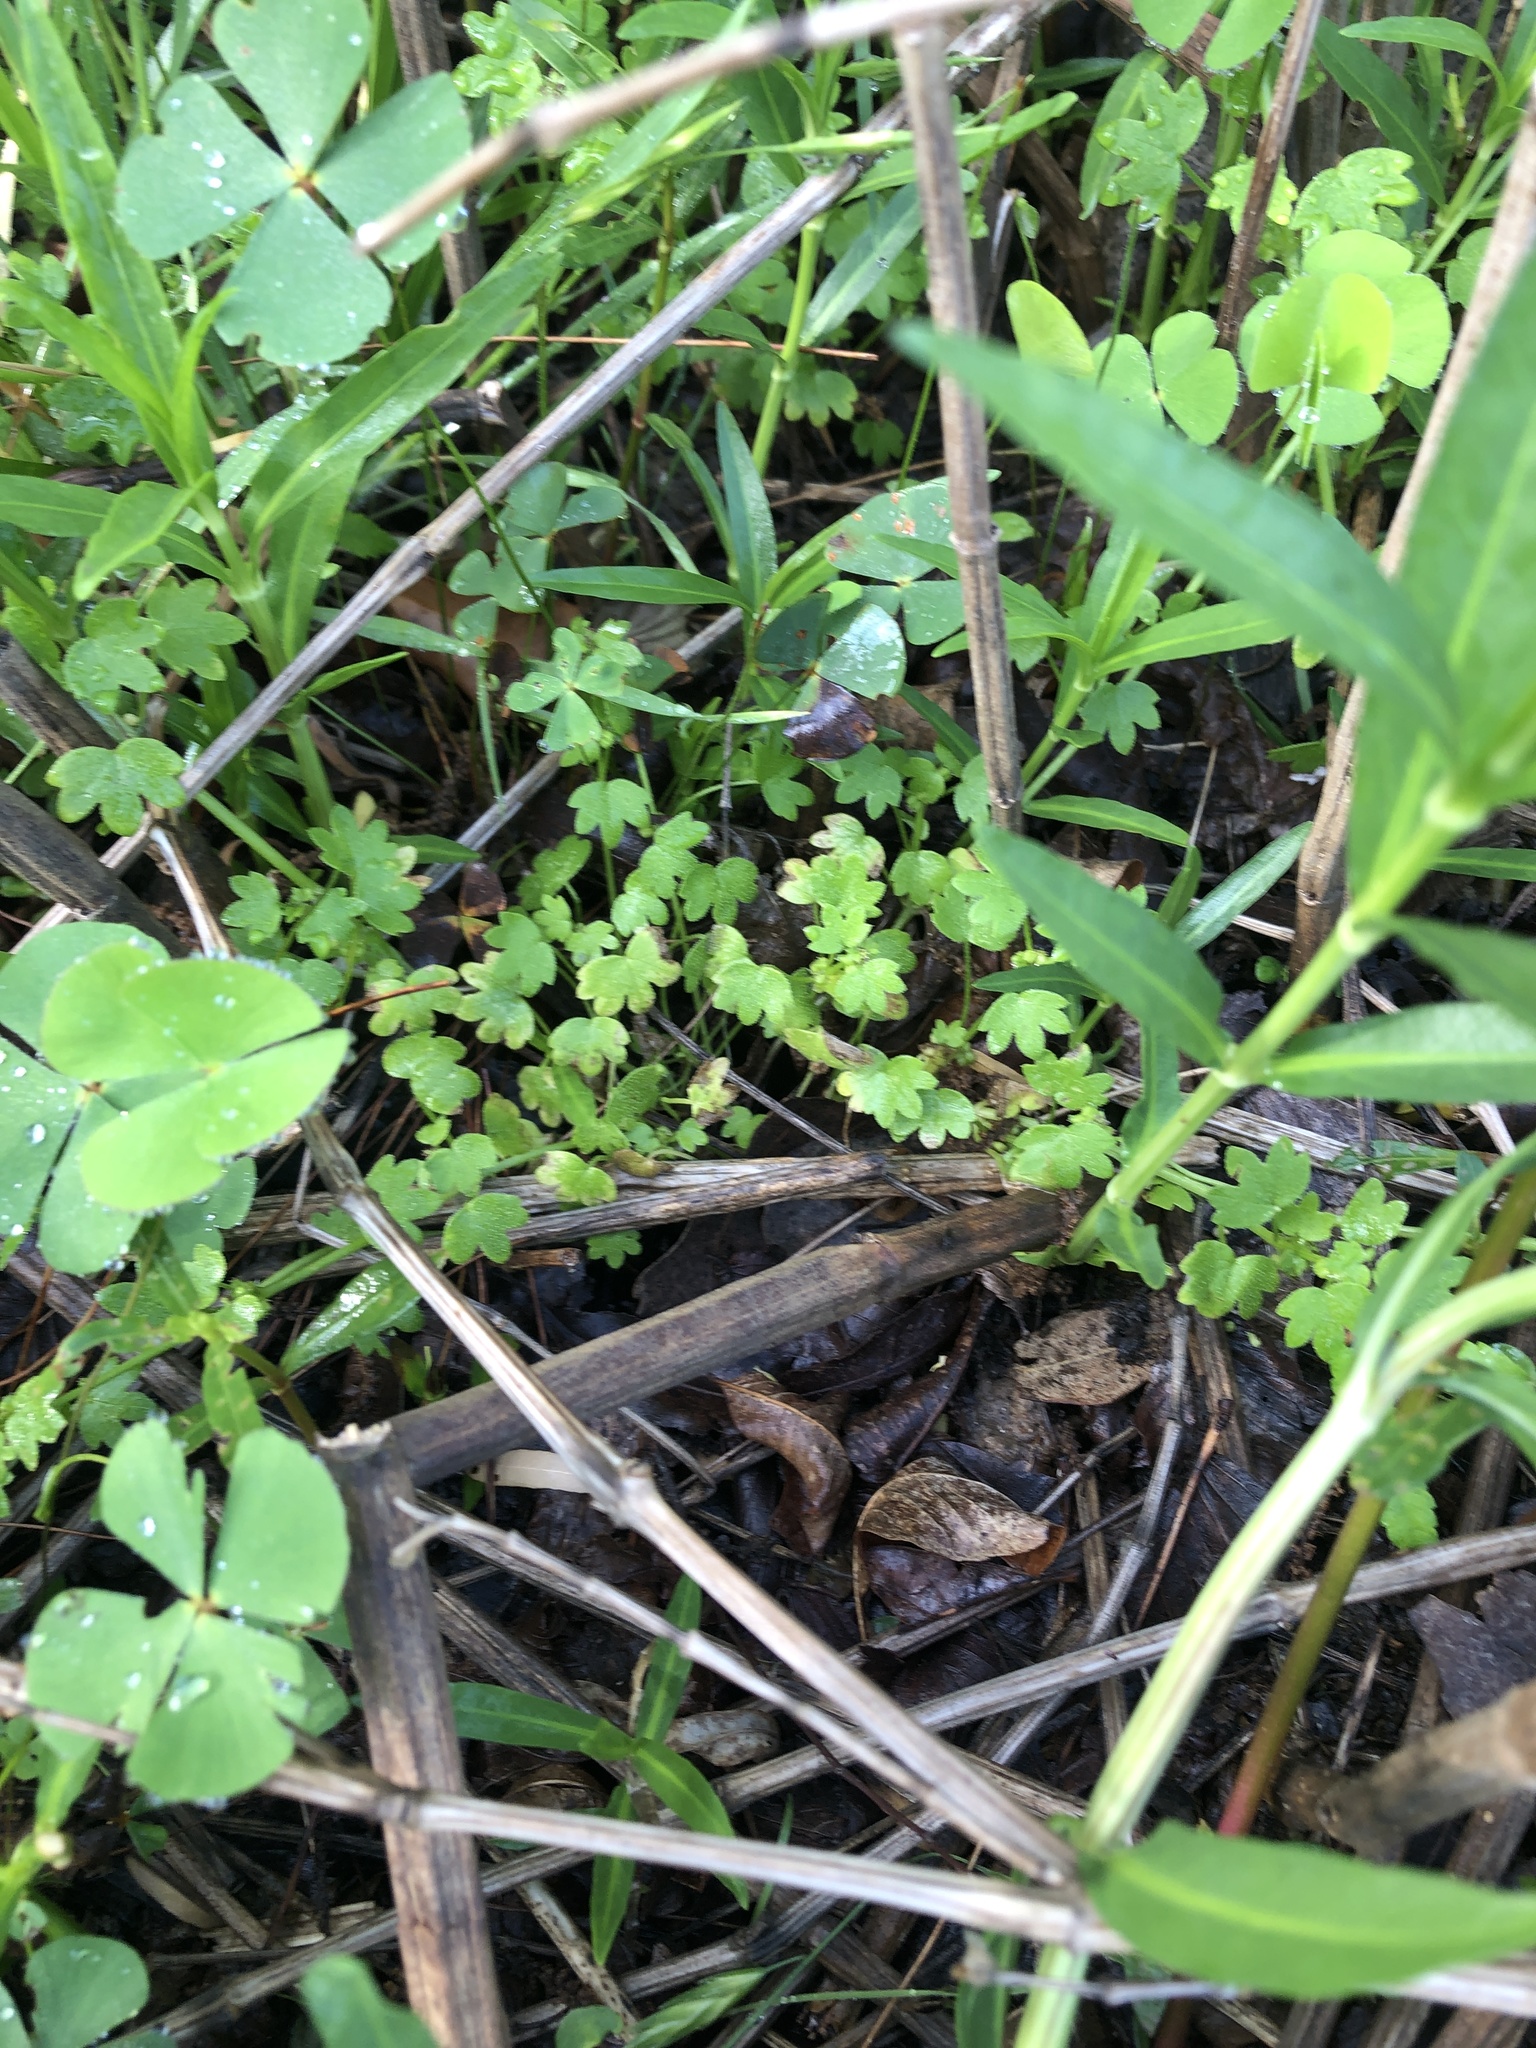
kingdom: Plantae
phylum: Tracheophyta
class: Magnoliopsida
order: Apiales
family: Apiaceae
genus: Bowlesia
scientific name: Bowlesia incana
